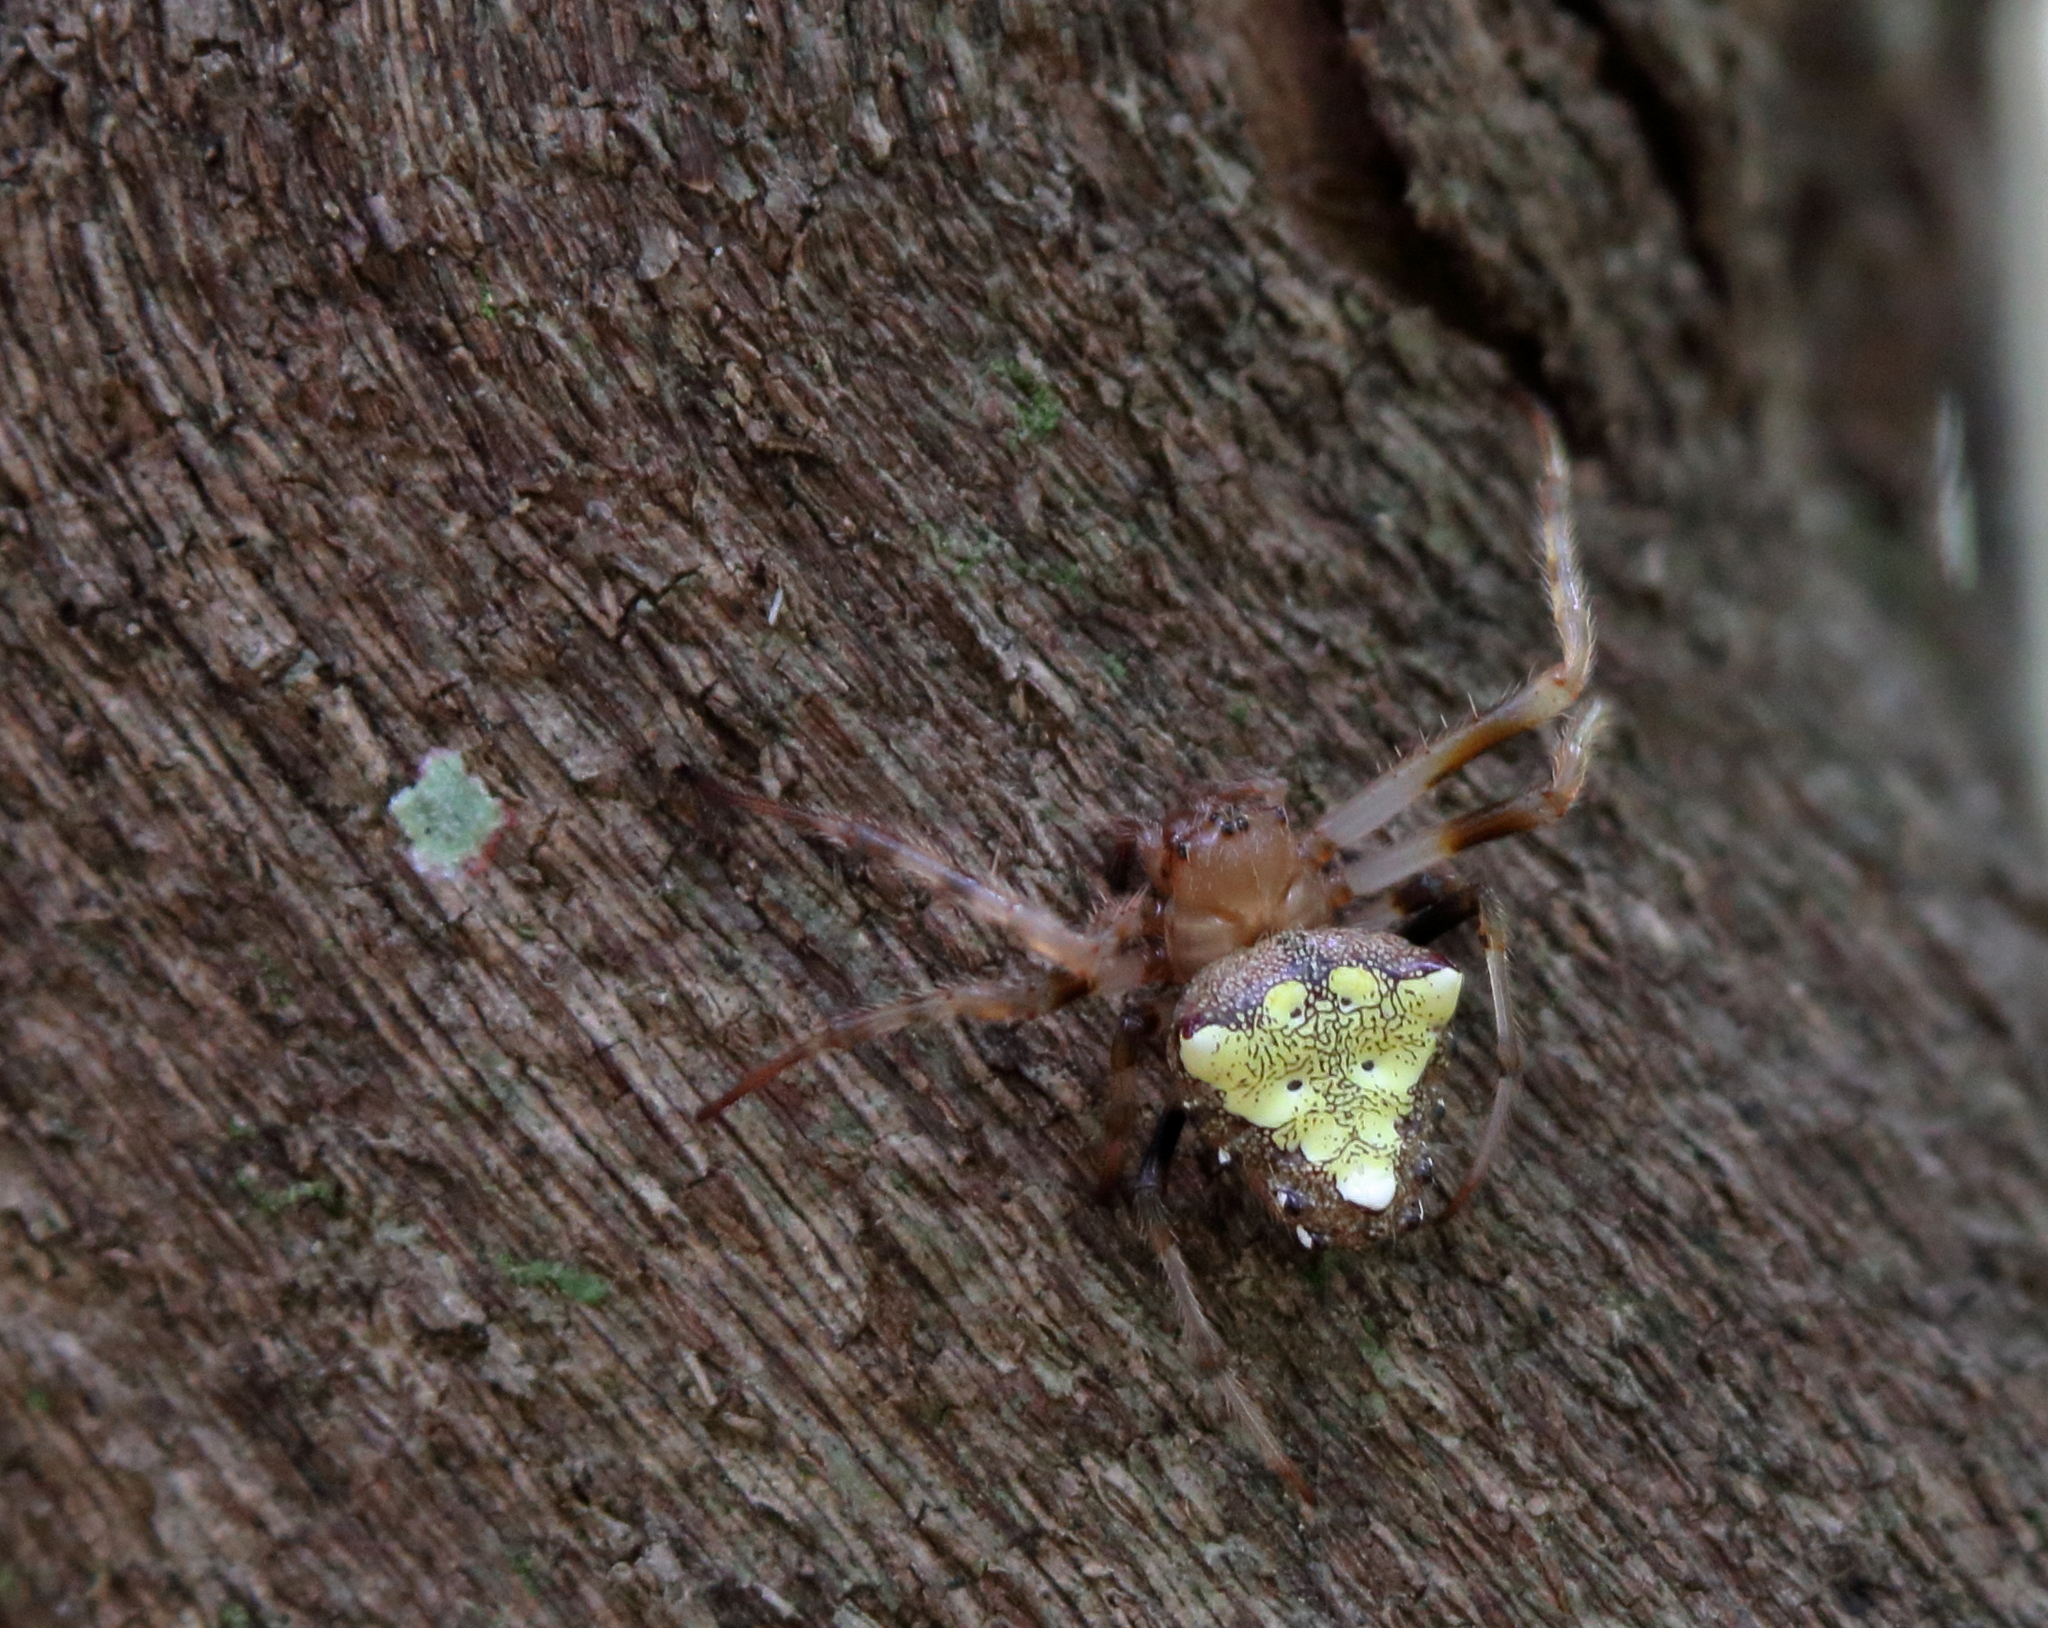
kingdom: Animalia
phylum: Arthropoda
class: Arachnida
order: Araneae
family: Araneidae
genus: Verrucosa
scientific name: Verrucosa arenata
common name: Orb weavers
